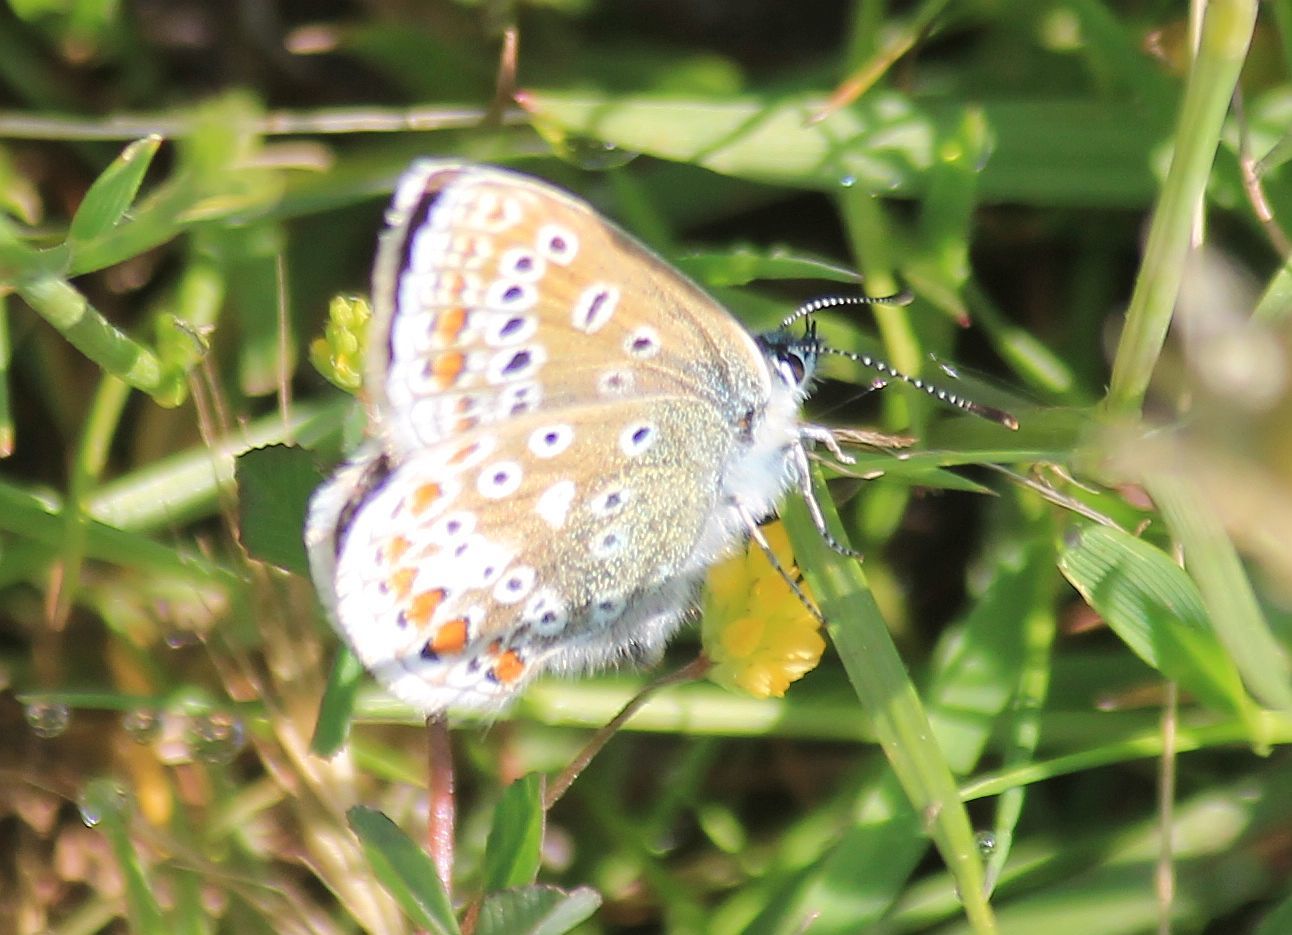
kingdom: Animalia
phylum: Arthropoda
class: Insecta
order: Lepidoptera
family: Lycaenidae
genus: Polyommatus
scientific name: Polyommatus icarus
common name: Common blue
